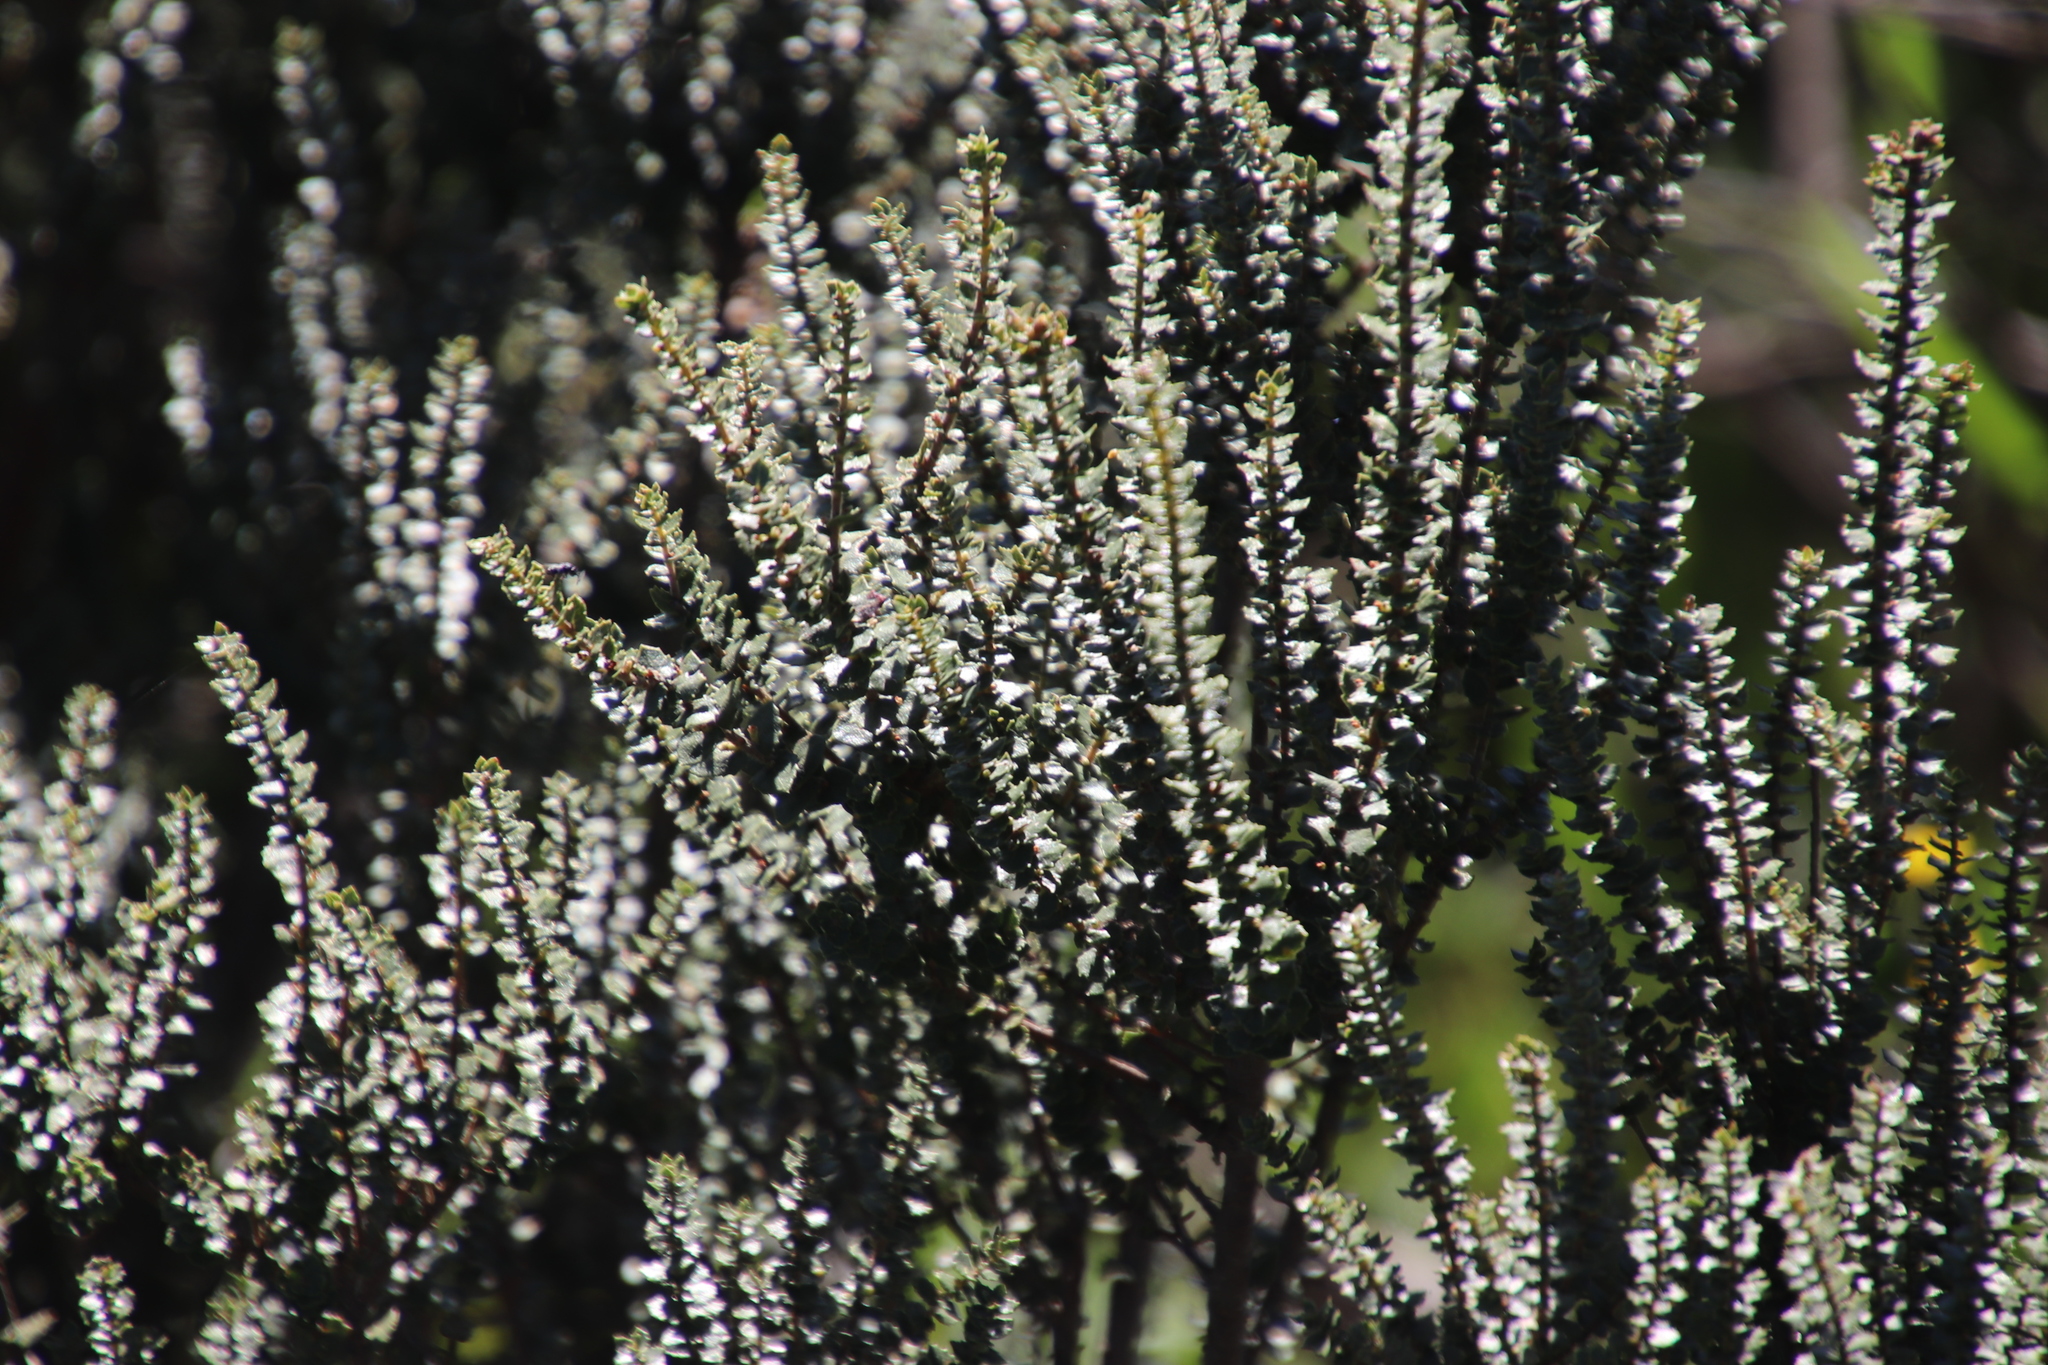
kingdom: Plantae
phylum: Tracheophyta
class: Magnoliopsida
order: Fagales
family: Myricaceae
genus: Morella
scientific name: Morella cordifolia
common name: Waxberry
